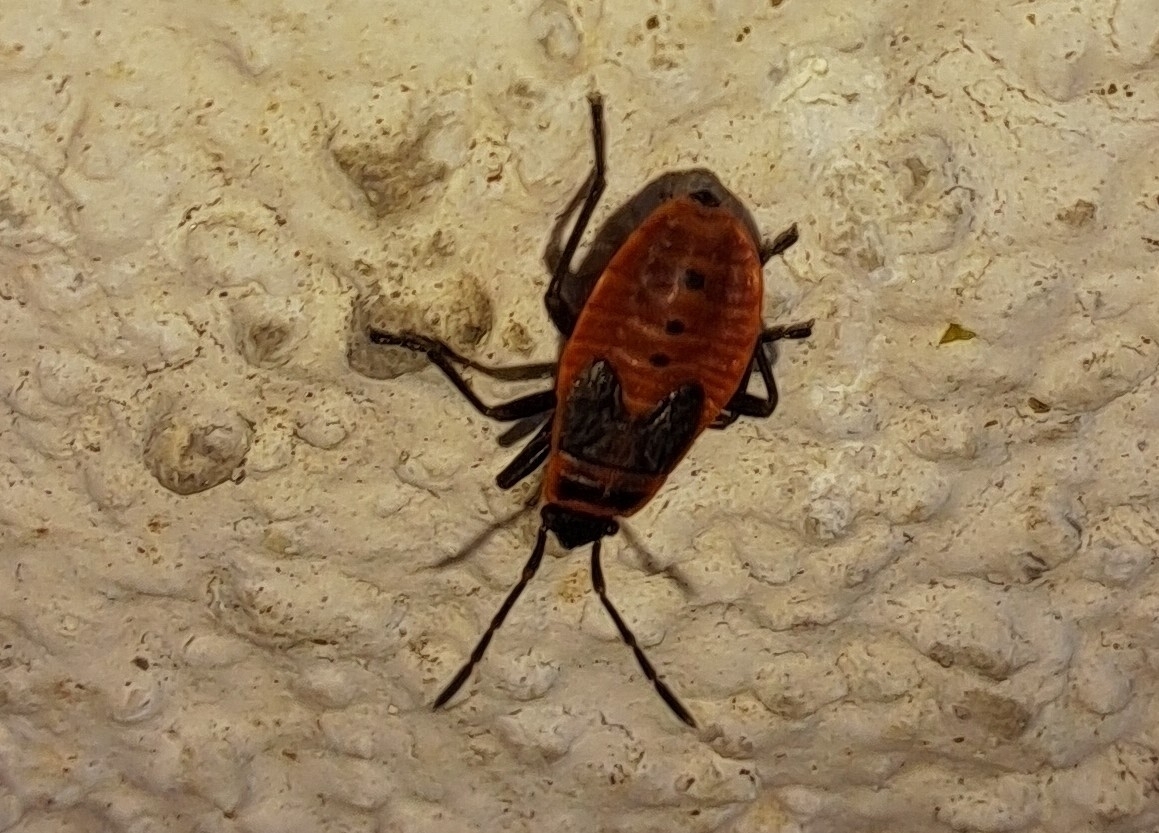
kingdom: Animalia
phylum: Arthropoda
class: Insecta
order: Hemiptera
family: Pyrrhocoridae
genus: Pyrrhocoris
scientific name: Pyrrhocoris apterus
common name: Firebug
